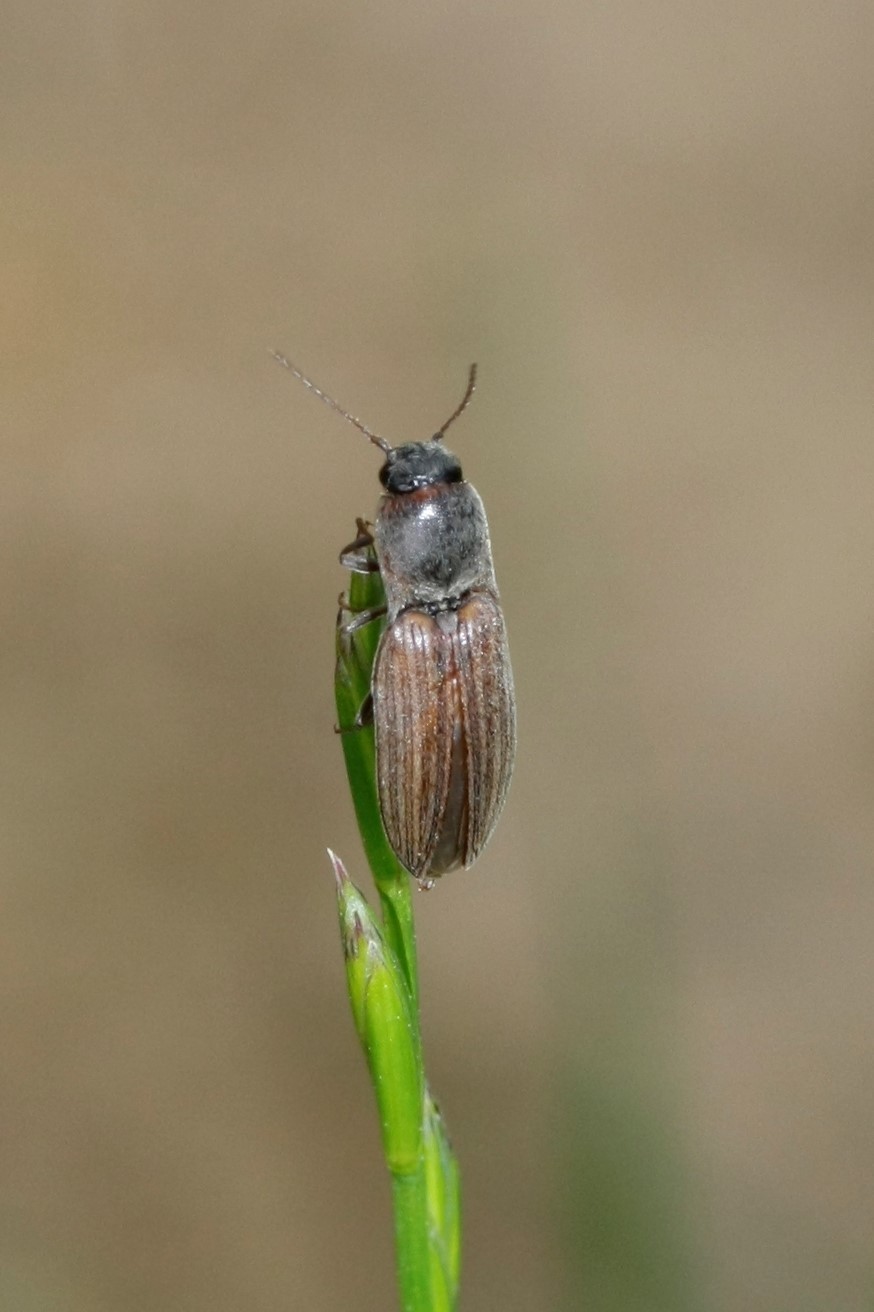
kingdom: Animalia
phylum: Arthropoda
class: Insecta
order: Coleoptera
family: Elateridae
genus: Agriotes
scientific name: Agriotes lineatus
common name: Lined click beetle
